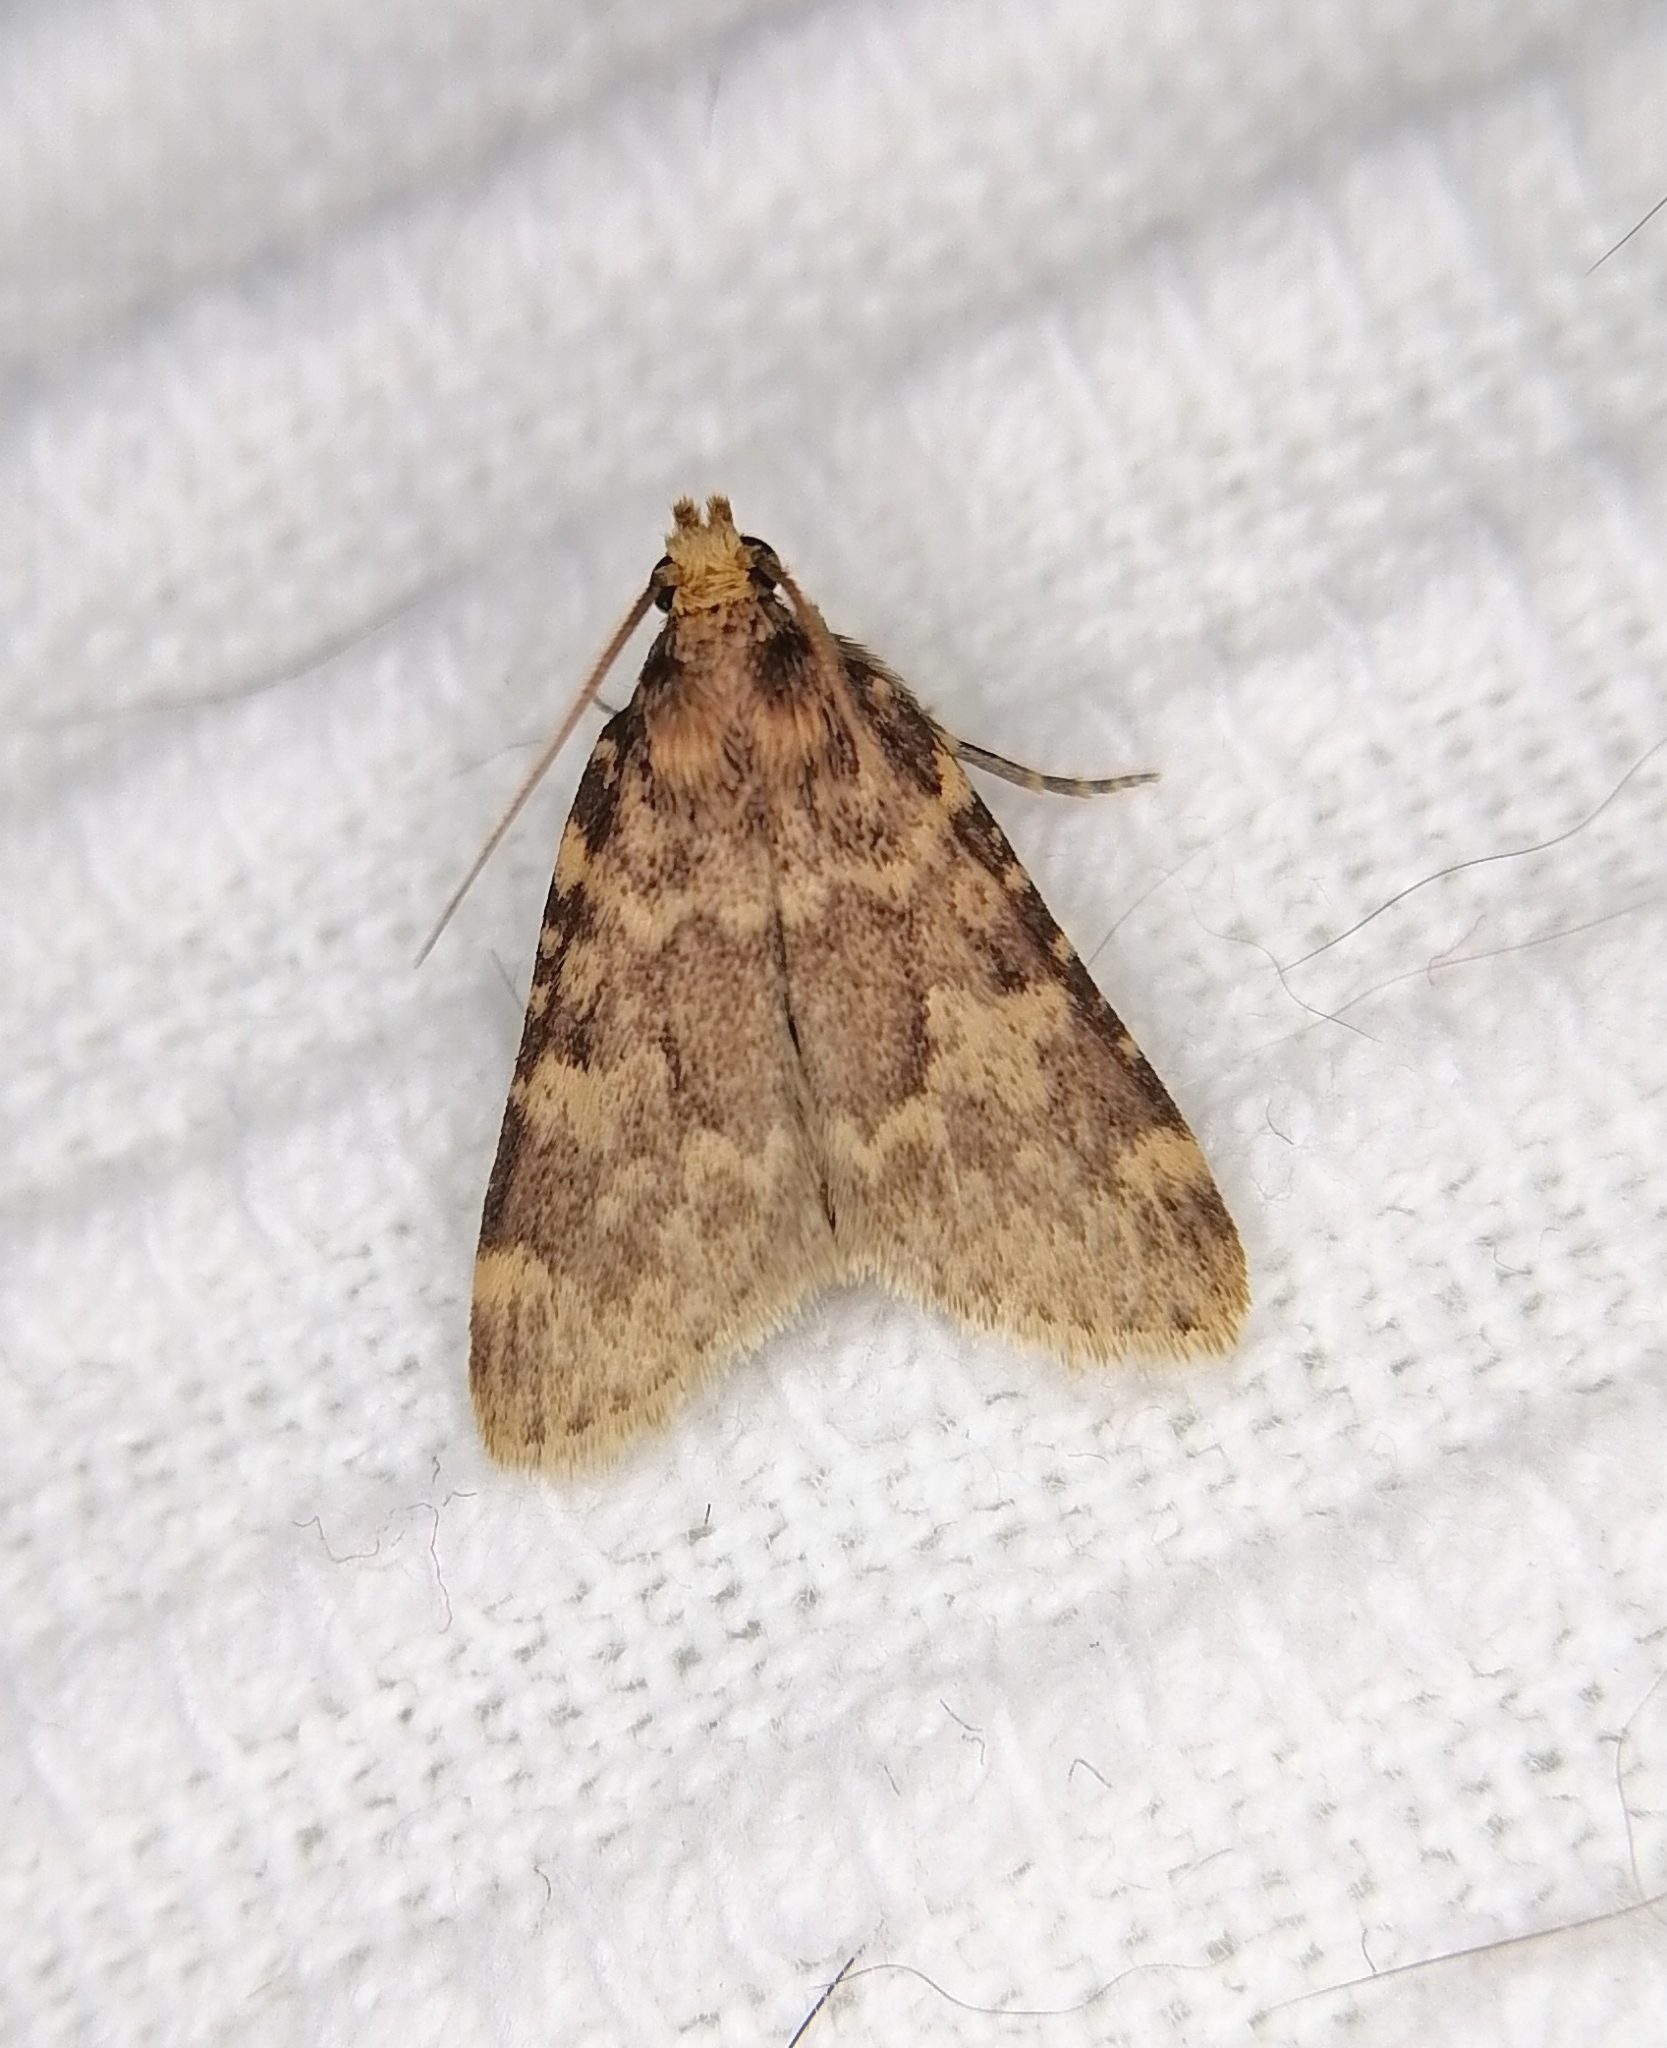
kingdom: Animalia
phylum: Arthropoda
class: Insecta
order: Lepidoptera
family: Pyralidae
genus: Aglossa
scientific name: Aglossa caprealis
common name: Small tabby
